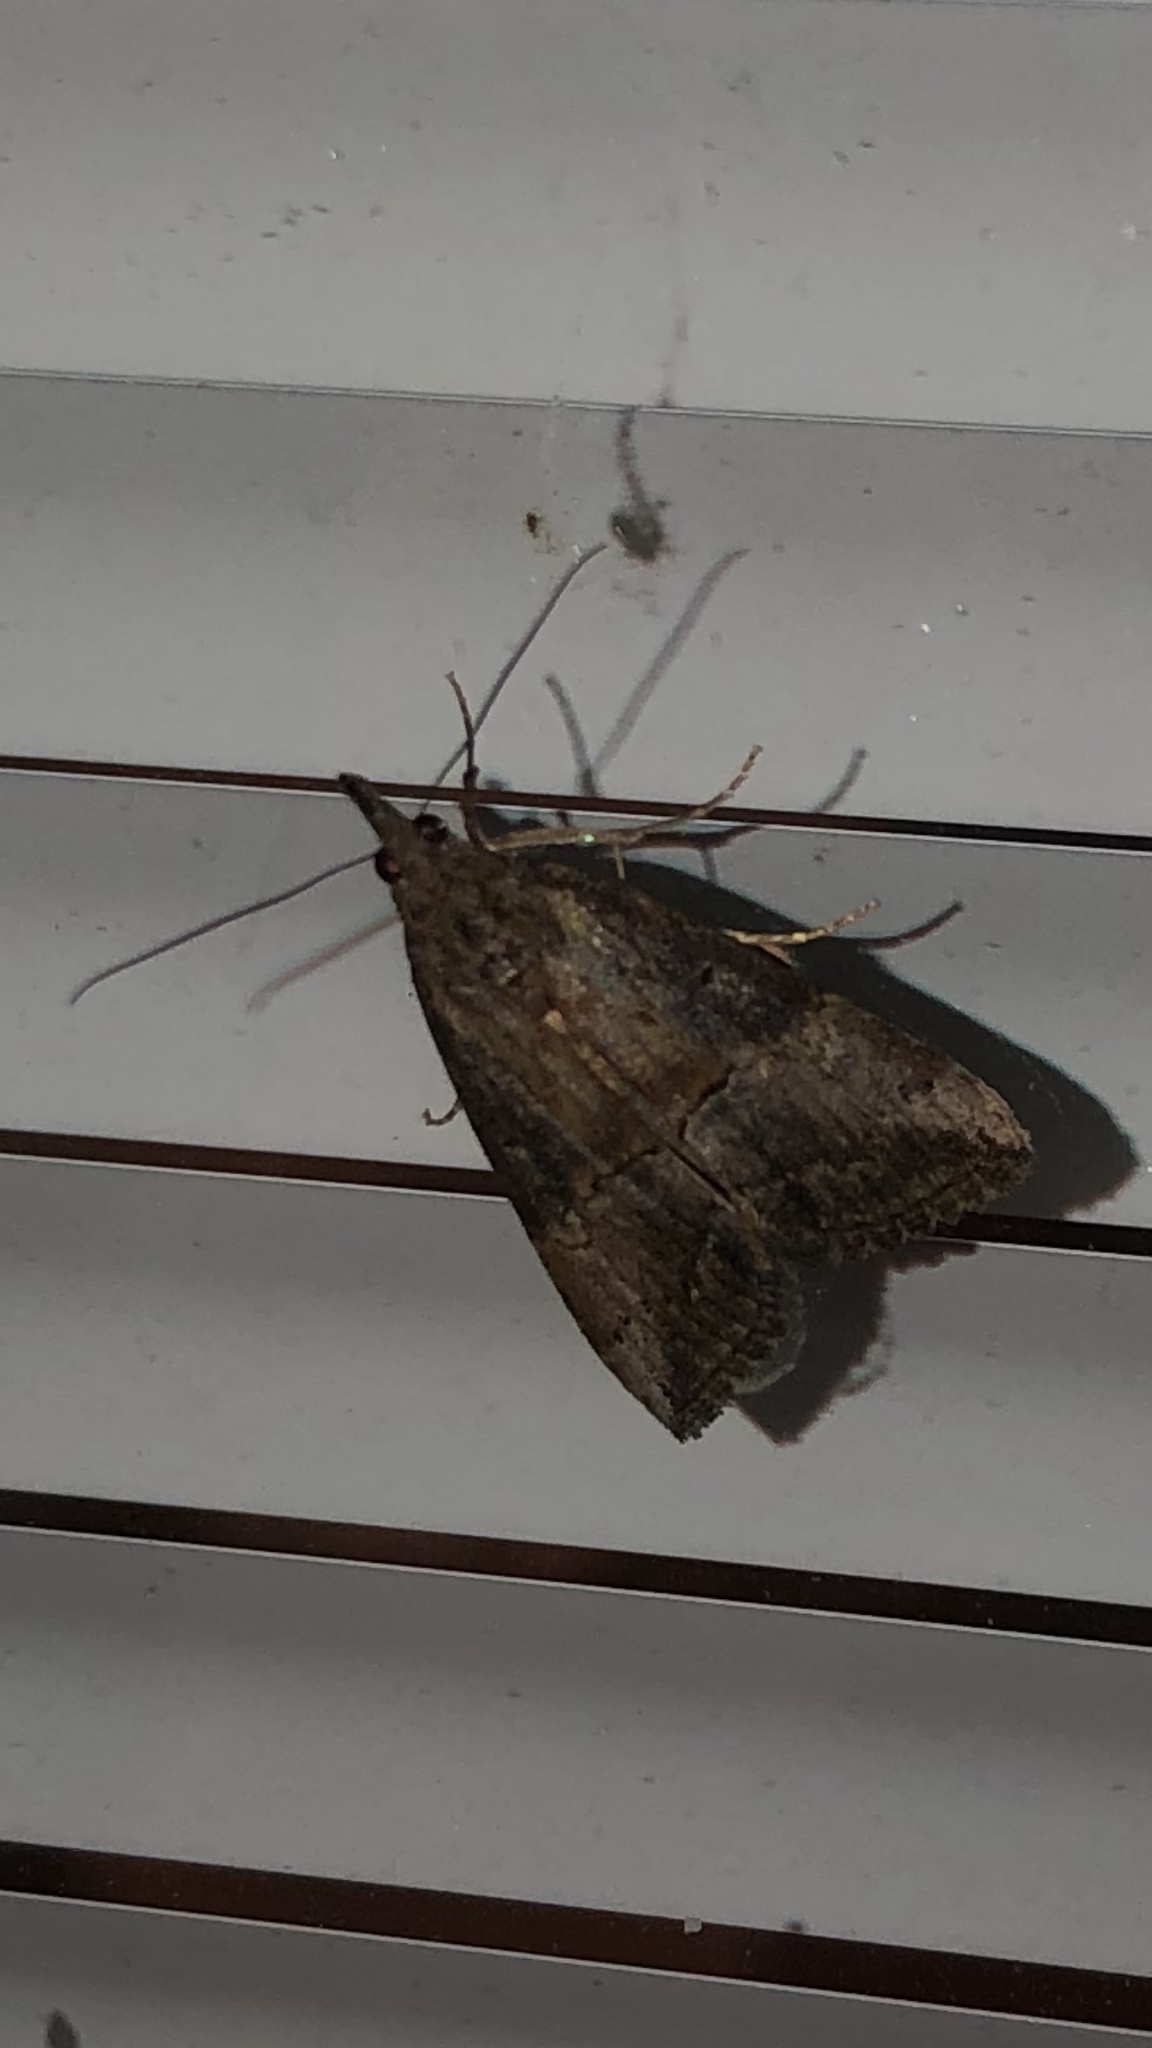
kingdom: Animalia
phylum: Arthropoda
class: Insecta
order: Lepidoptera
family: Erebidae
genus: Hypena
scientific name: Hypena scabra
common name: Green cloverworm
